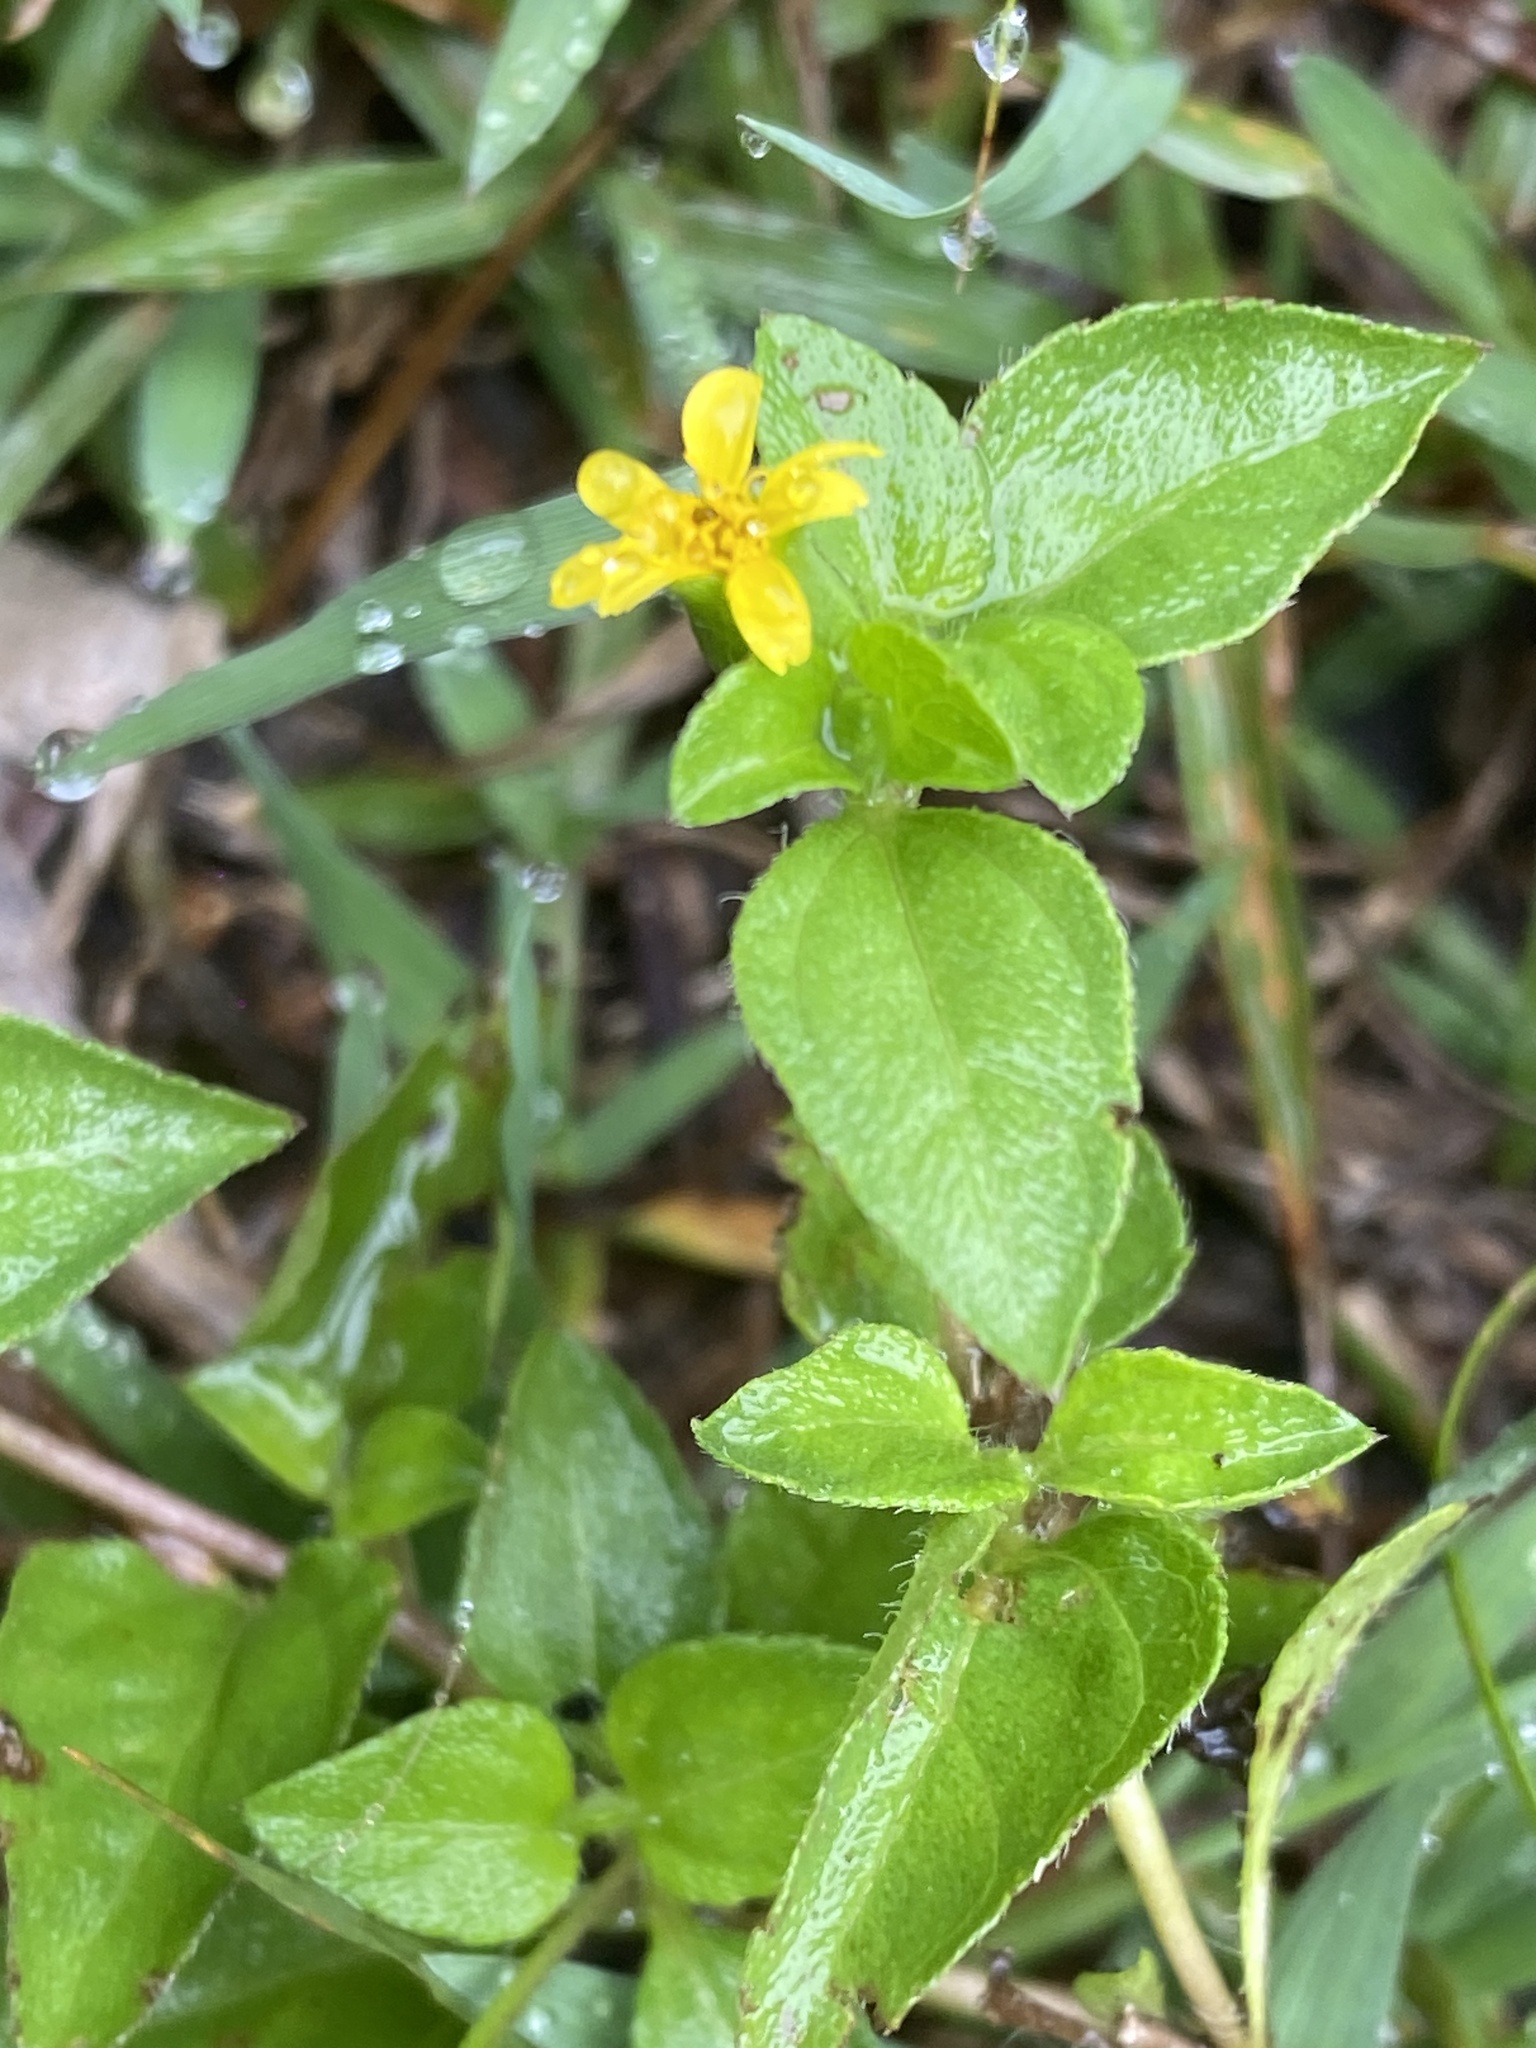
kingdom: Plantae
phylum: Tracheophyta
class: Magnoliopsida
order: Asterales
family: Asteraceae
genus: Calyptocarpus
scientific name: Calyptocarpus vialis
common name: Straggler daisy
